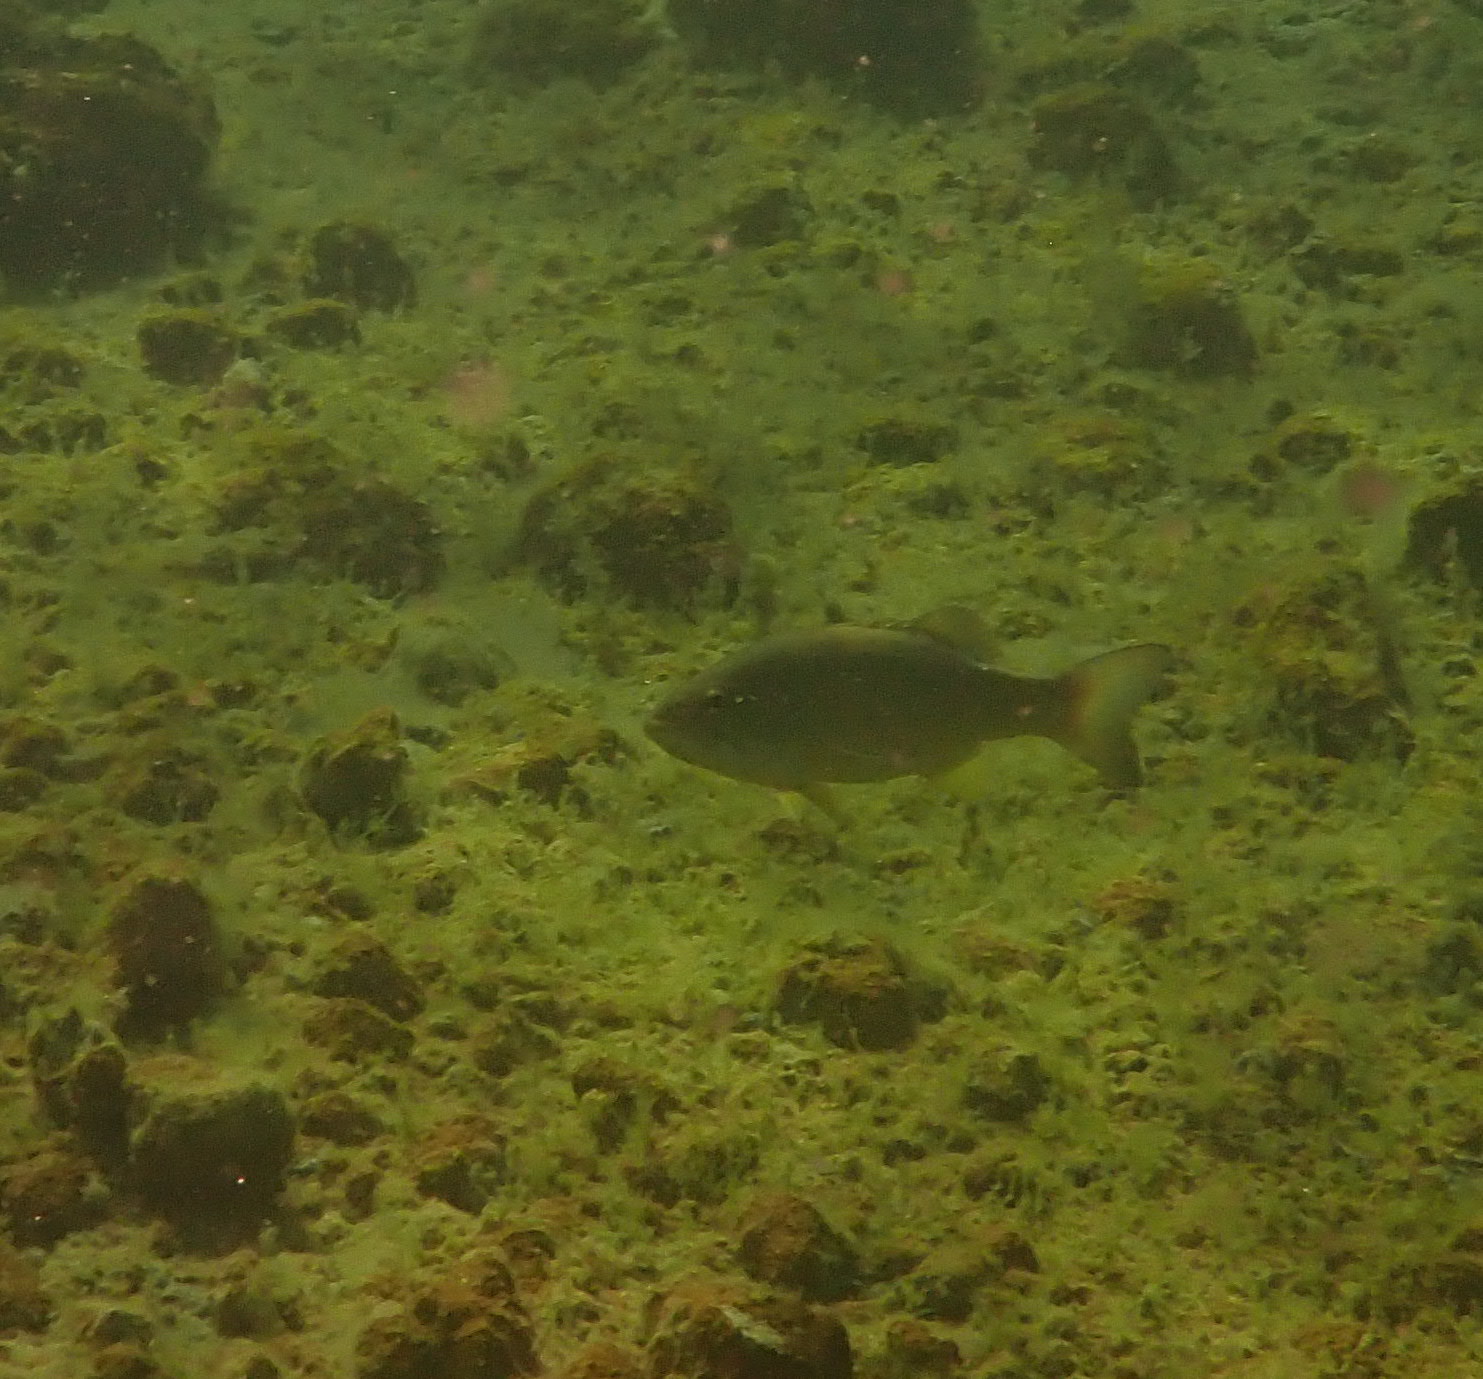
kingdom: Animalia
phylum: Chordata
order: Perciformes
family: Centrarchidae
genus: Micropterus
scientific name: Micropterus dolomieu
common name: Smallmouth bass
